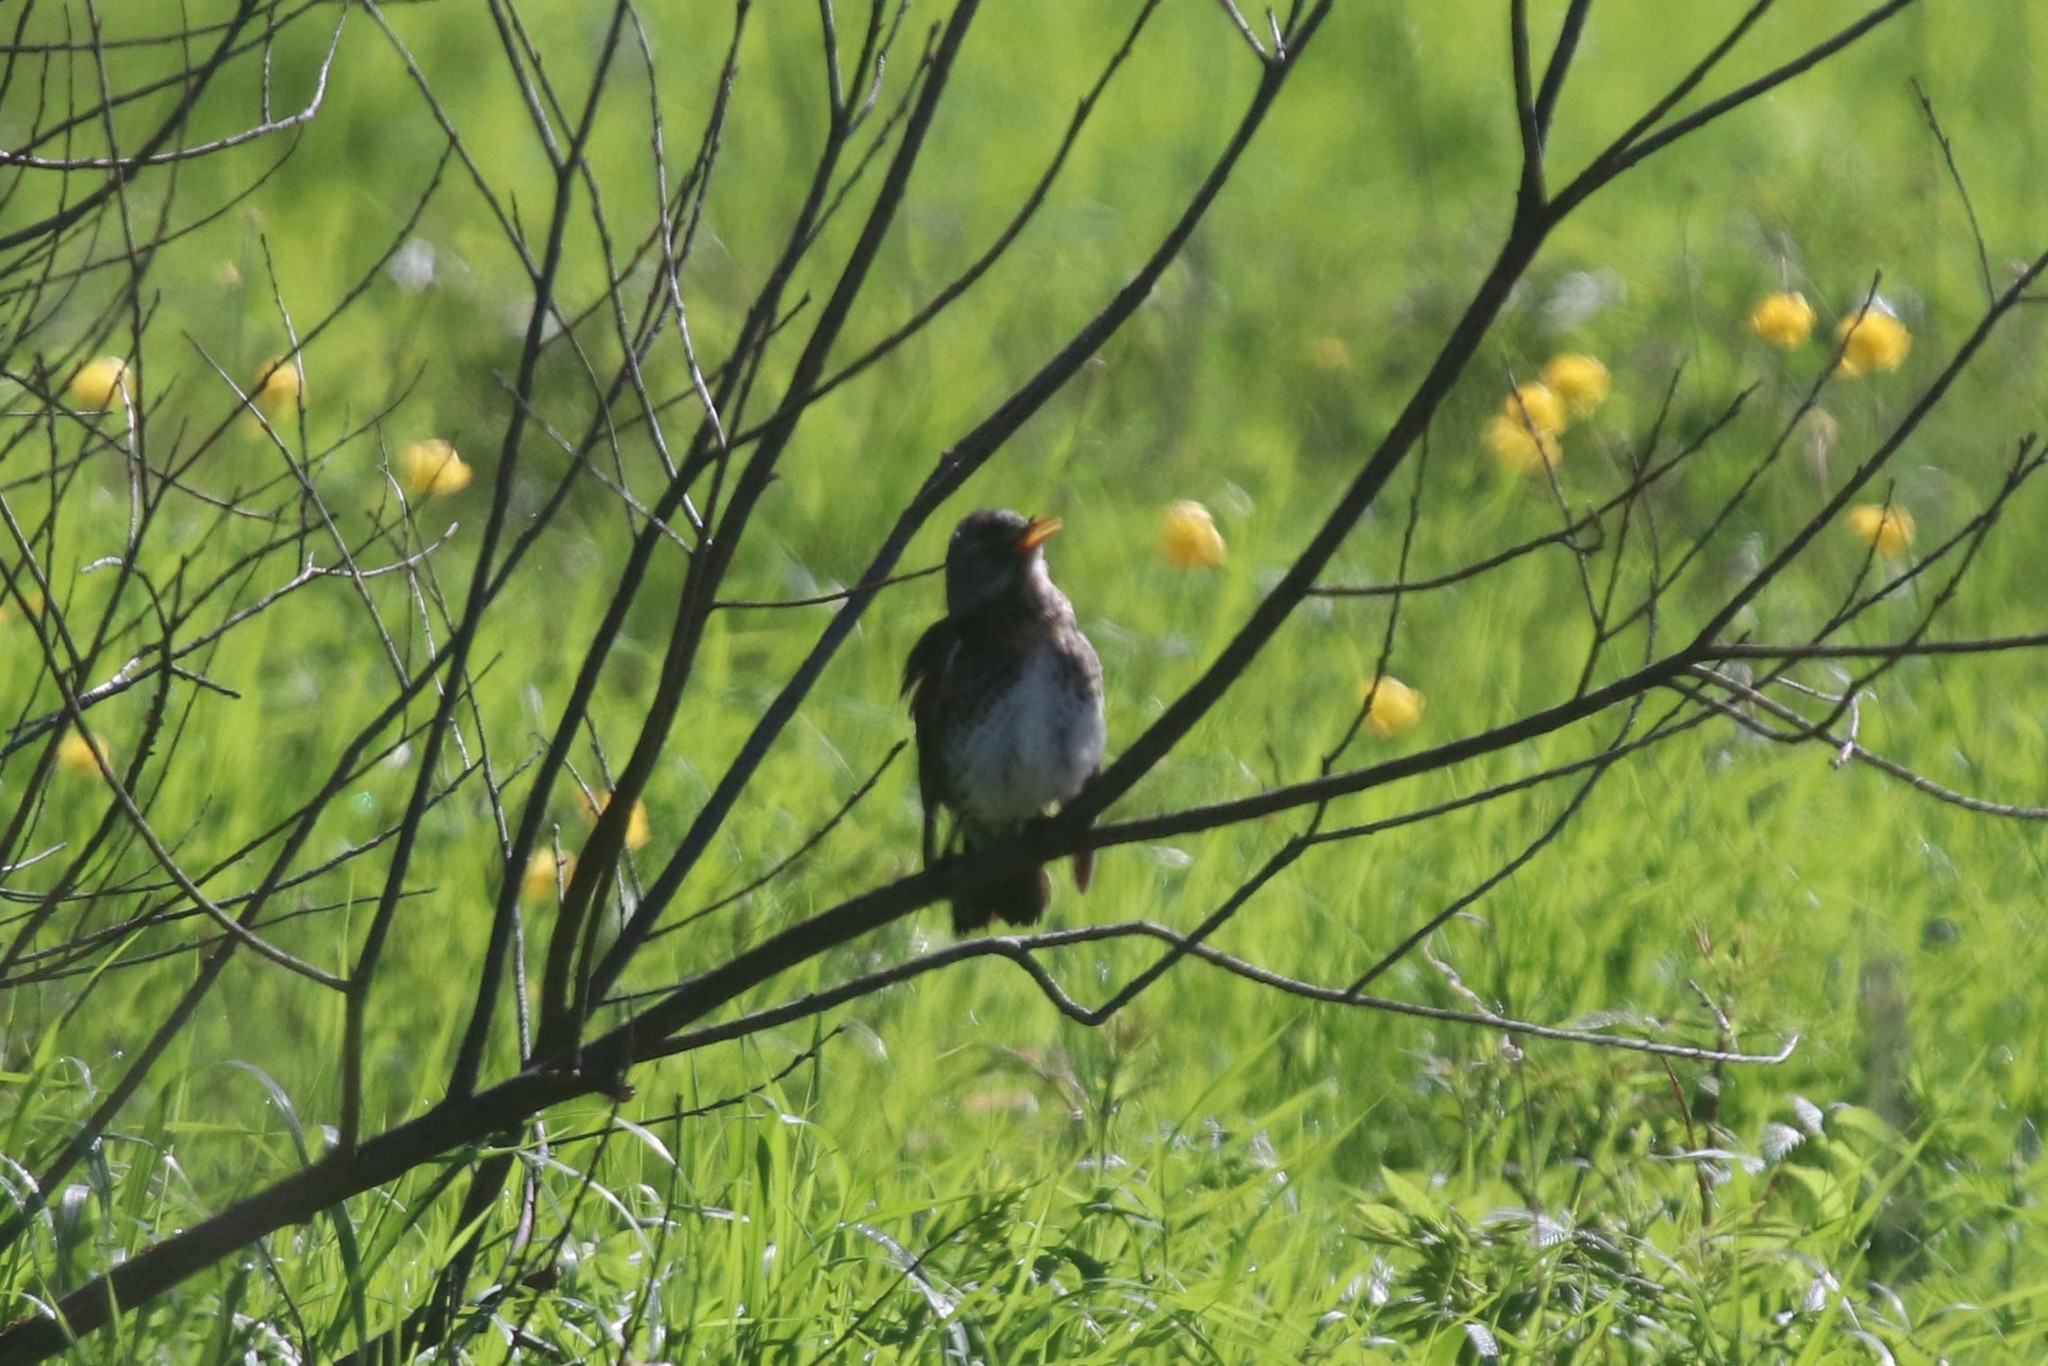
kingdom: Animalia
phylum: Chordata
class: Aves
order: Passeriformes
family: Turdidae
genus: Turdus
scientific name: Turdus pilaris
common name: Fieldfare
